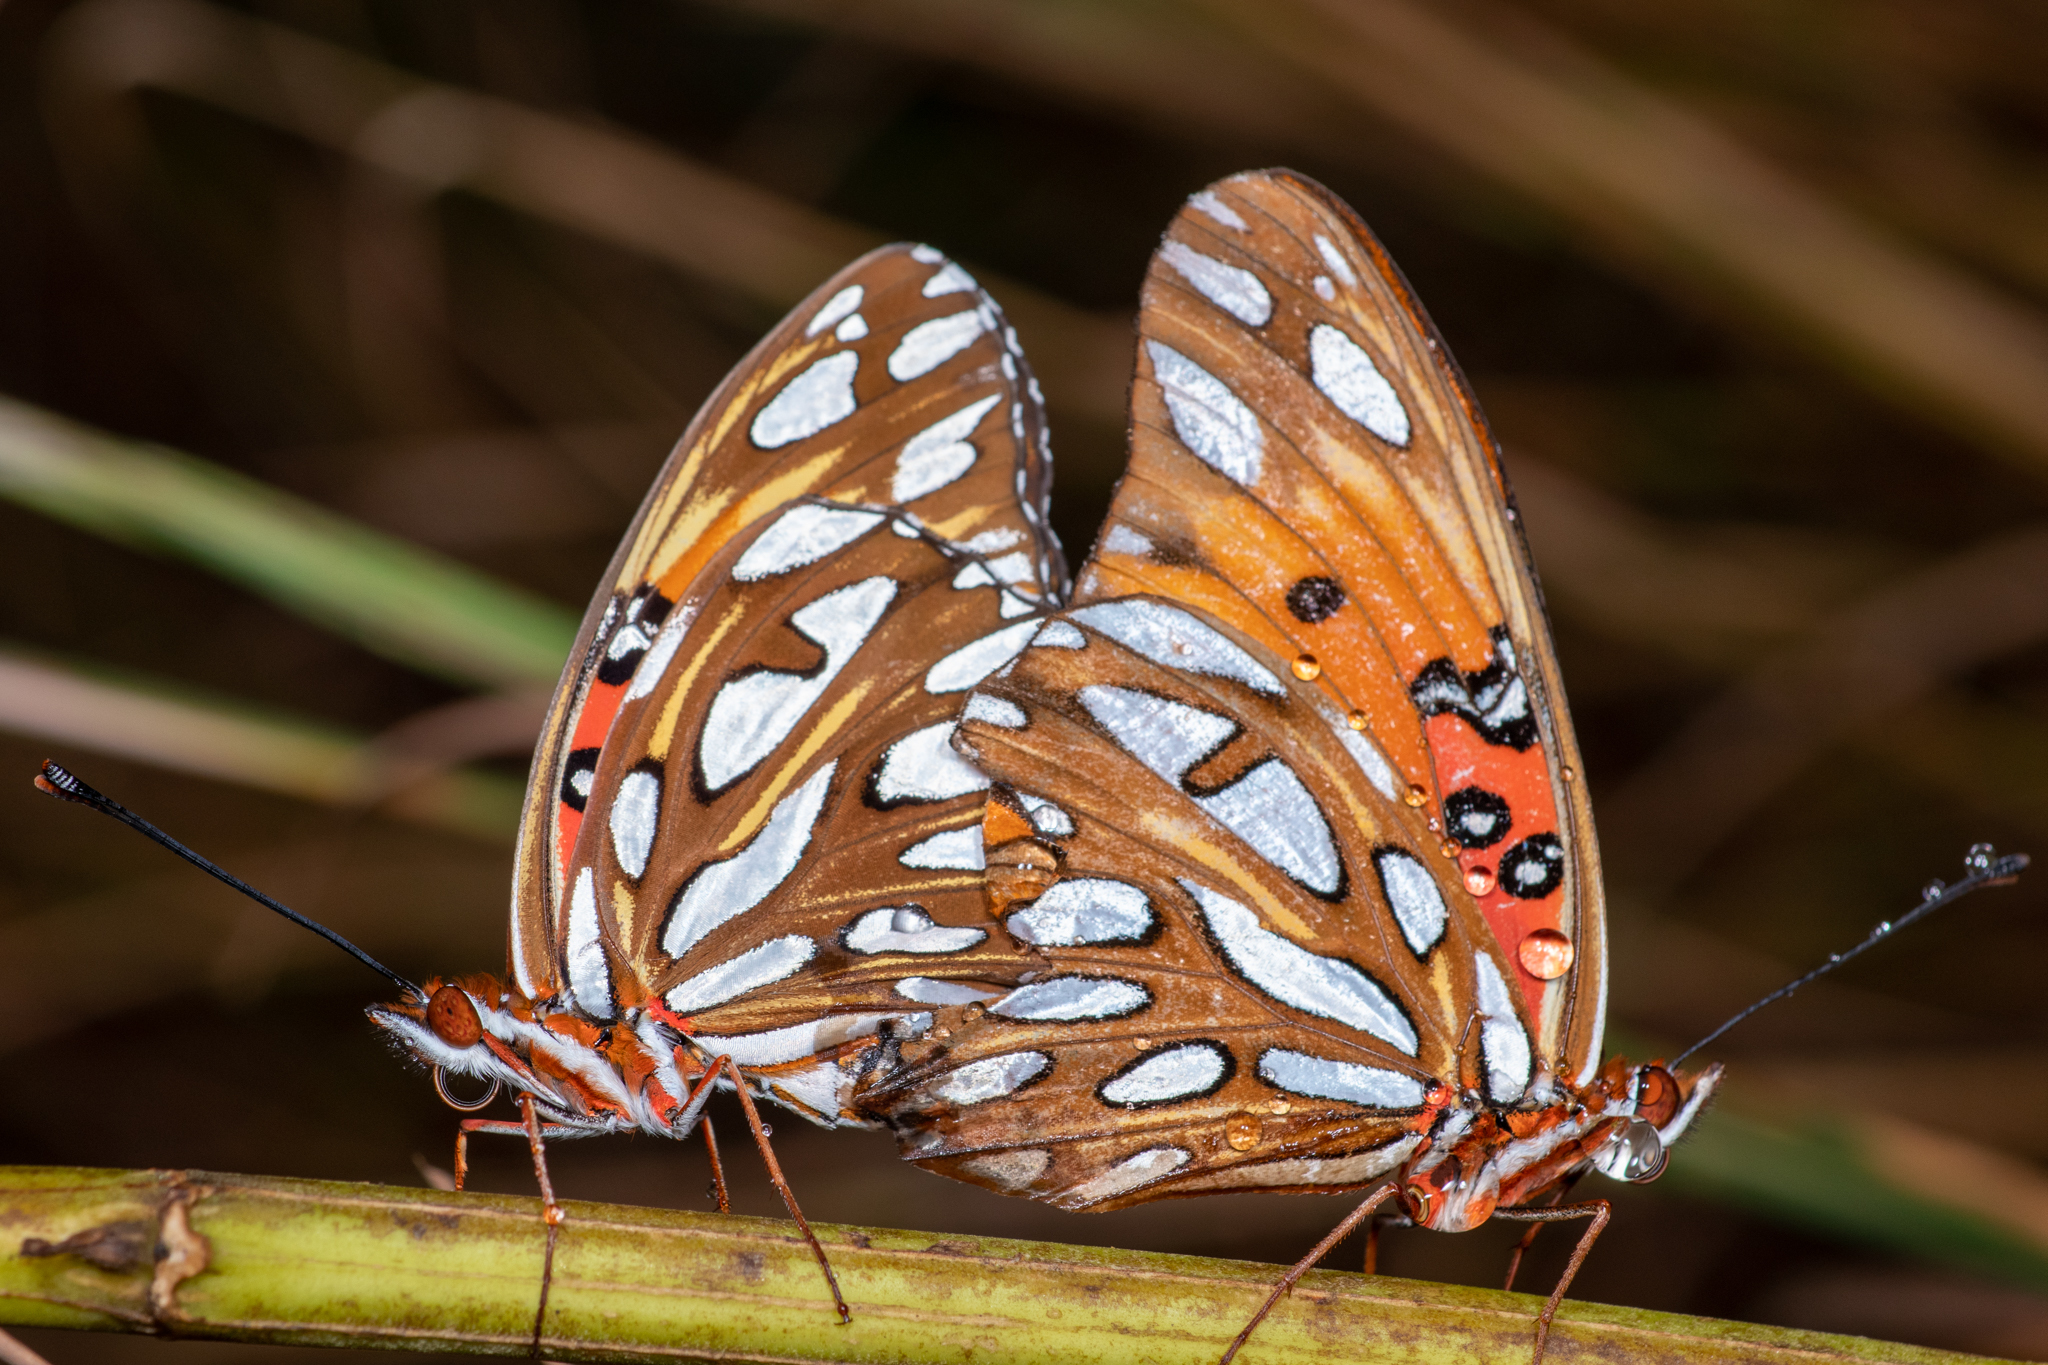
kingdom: Animalia
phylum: Arthropoda
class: Insecta
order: Lepidoptera
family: Nymphalidae
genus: Dione
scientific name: Dione vanillae
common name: Gulf fritillary
